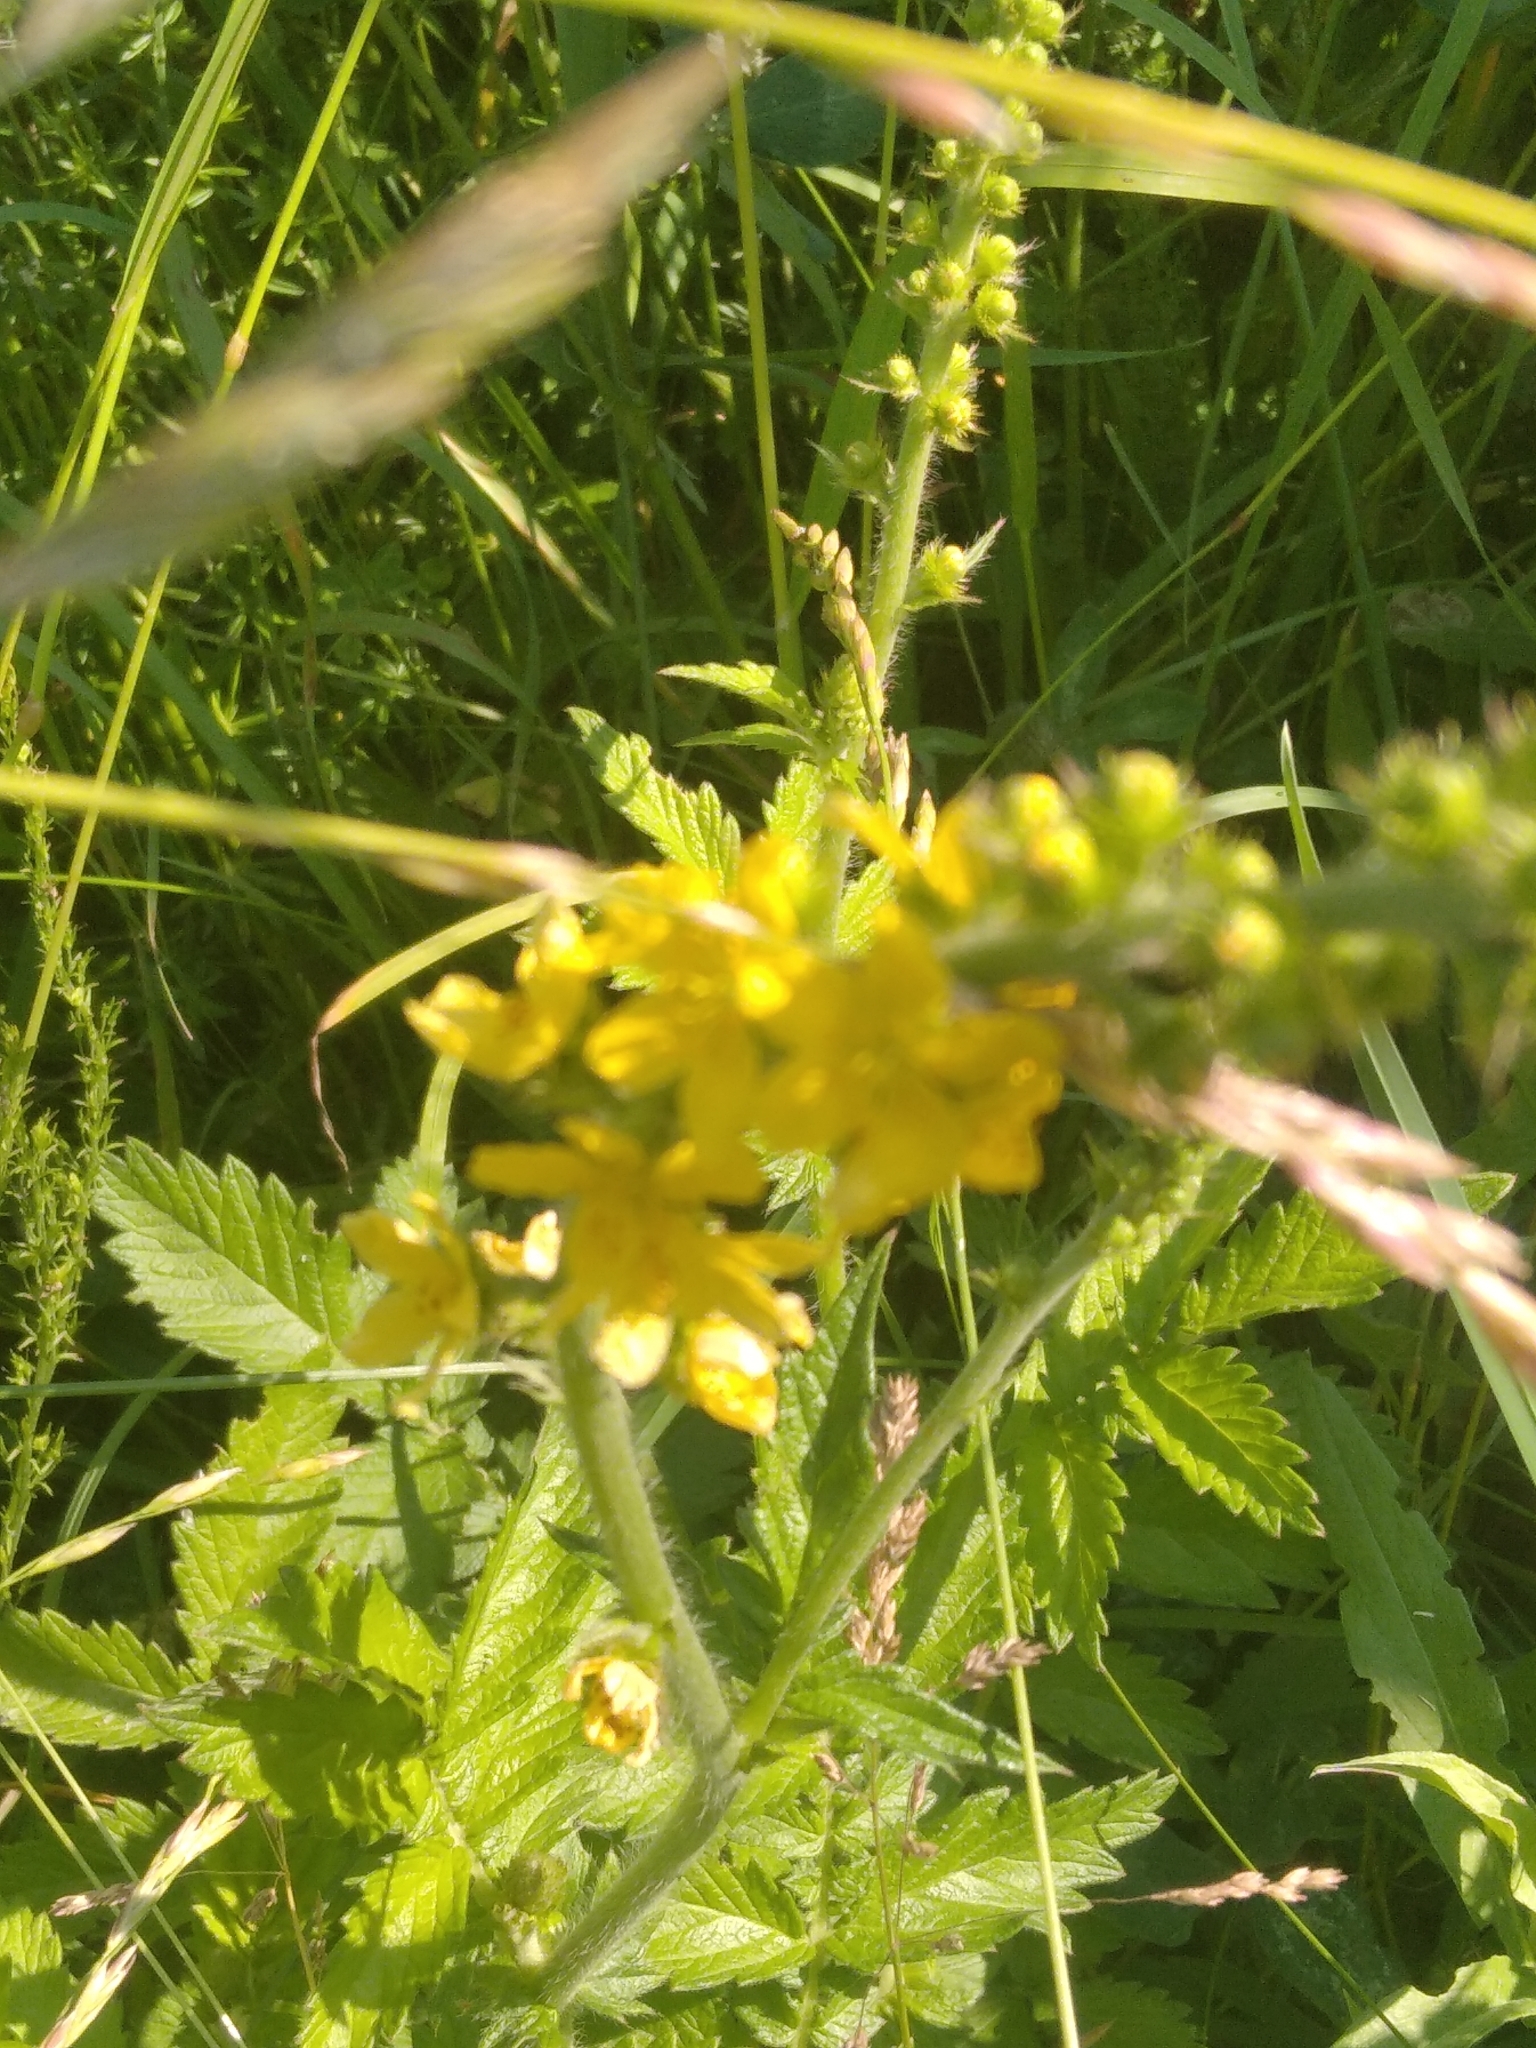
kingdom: Plantae
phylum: Tracheophyta
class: Magnoliopsida
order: Malpighiales
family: Hypericaceae
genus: Hypericum
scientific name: Hypericum perforatum
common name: Common st. johnswort
